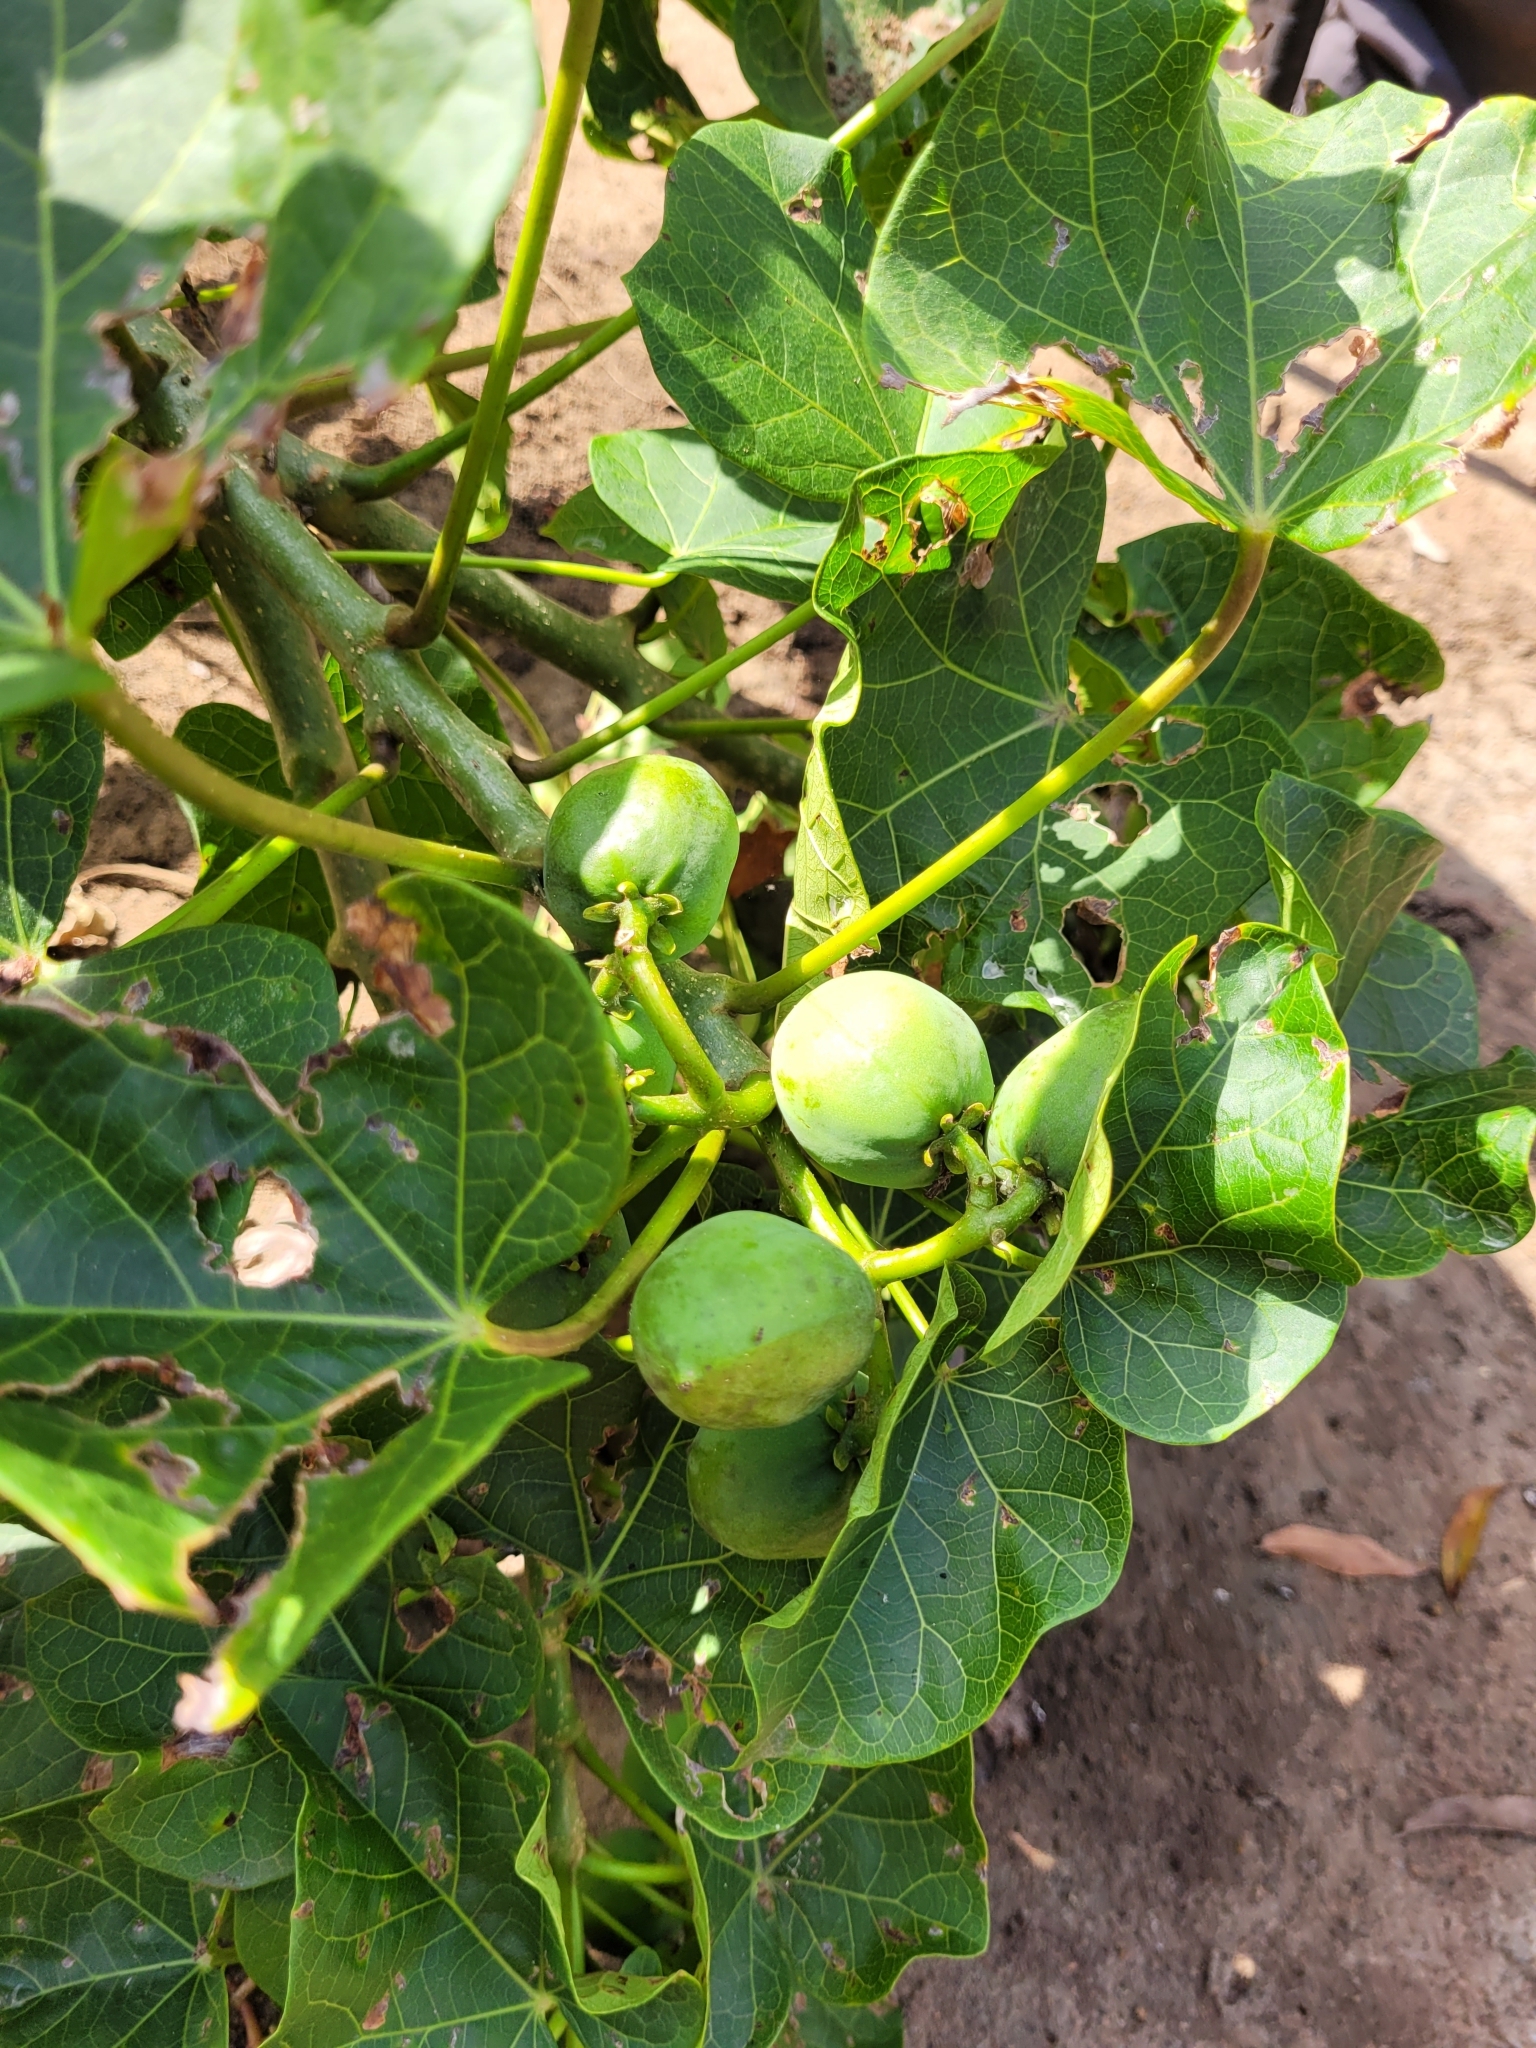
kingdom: Plantae
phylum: Tracheophyta
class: Magnoliopsida
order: Malpighiales
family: Euphorbiaceae
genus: Jatropha
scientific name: Jatropha curcas
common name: Barbados nut
